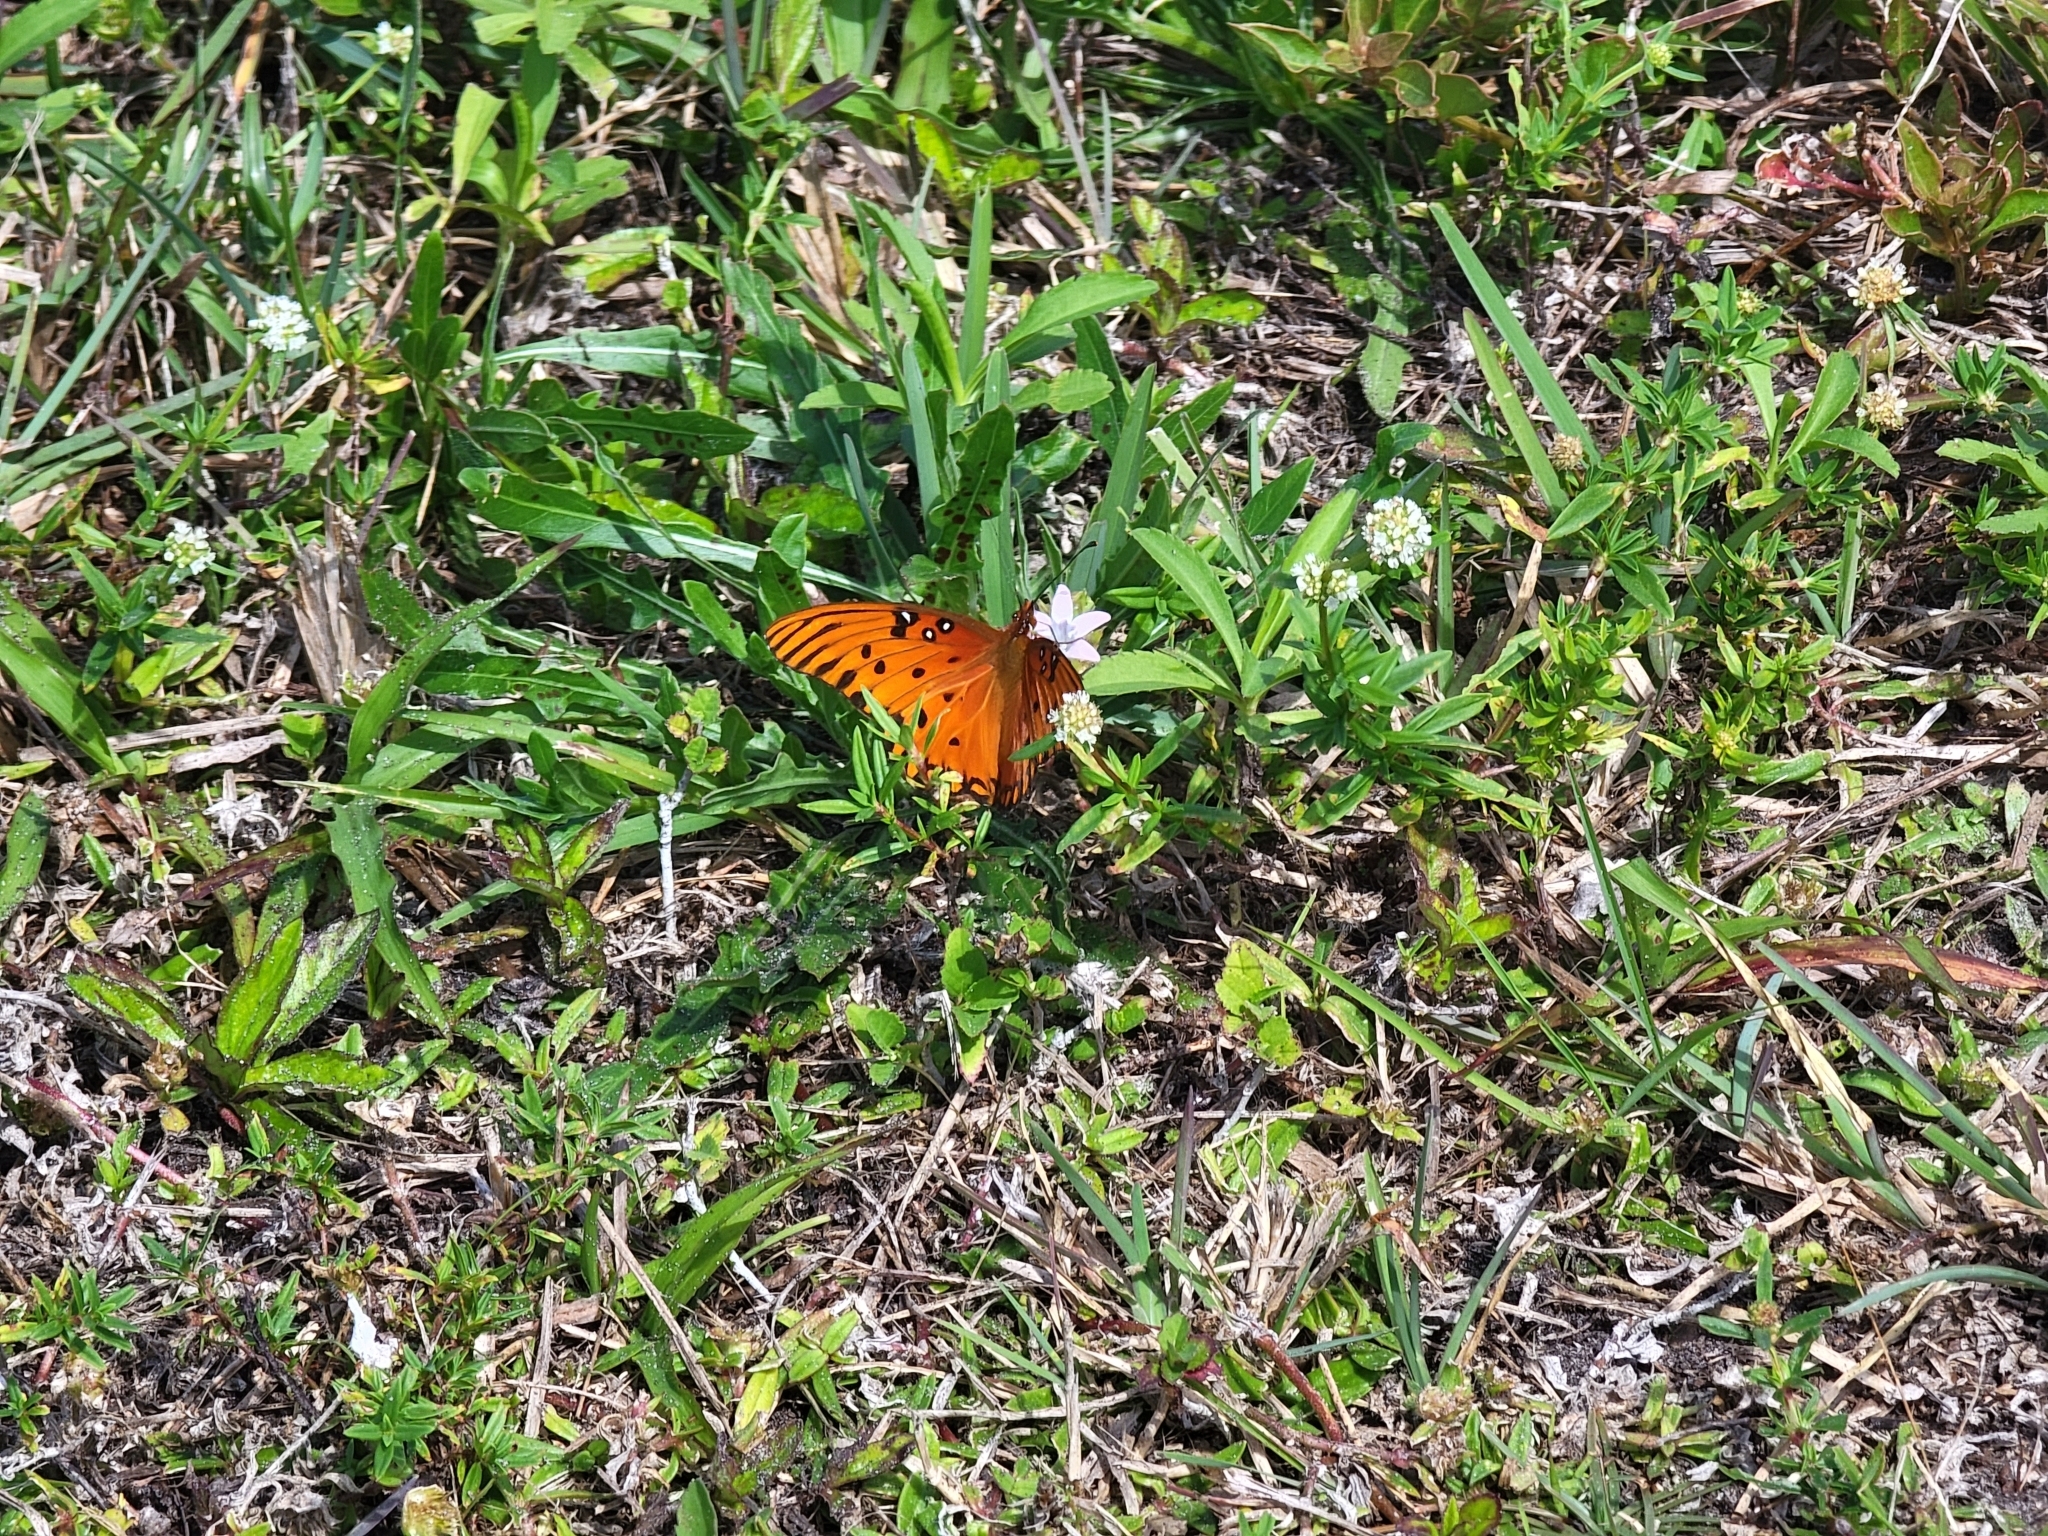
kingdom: Animalia
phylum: Arthropoda
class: Insecta
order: Lepidoptera
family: Nymphalidae
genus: Dione
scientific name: Dione vanillae
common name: Gulf fritillary
